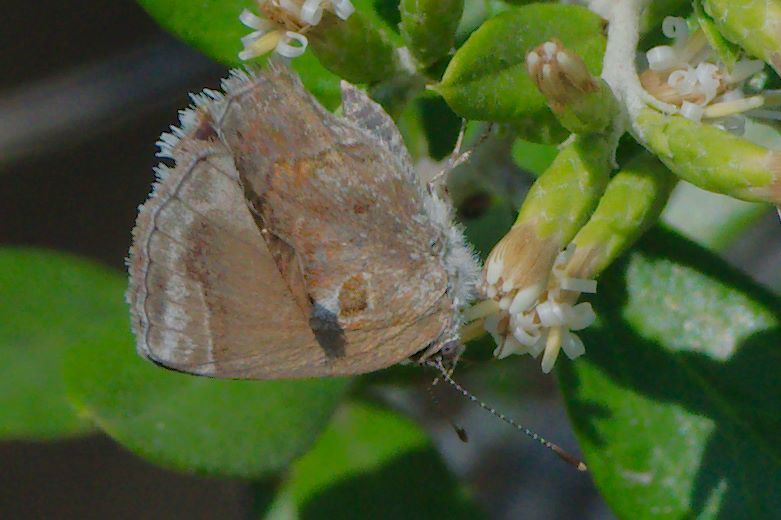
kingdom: Animalia
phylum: Arthropoda
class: Insecta
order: Lepidoptera
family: Lycaenidae
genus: Strymon
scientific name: Strymon bazochii
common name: Lantana scrub-hairstreak
